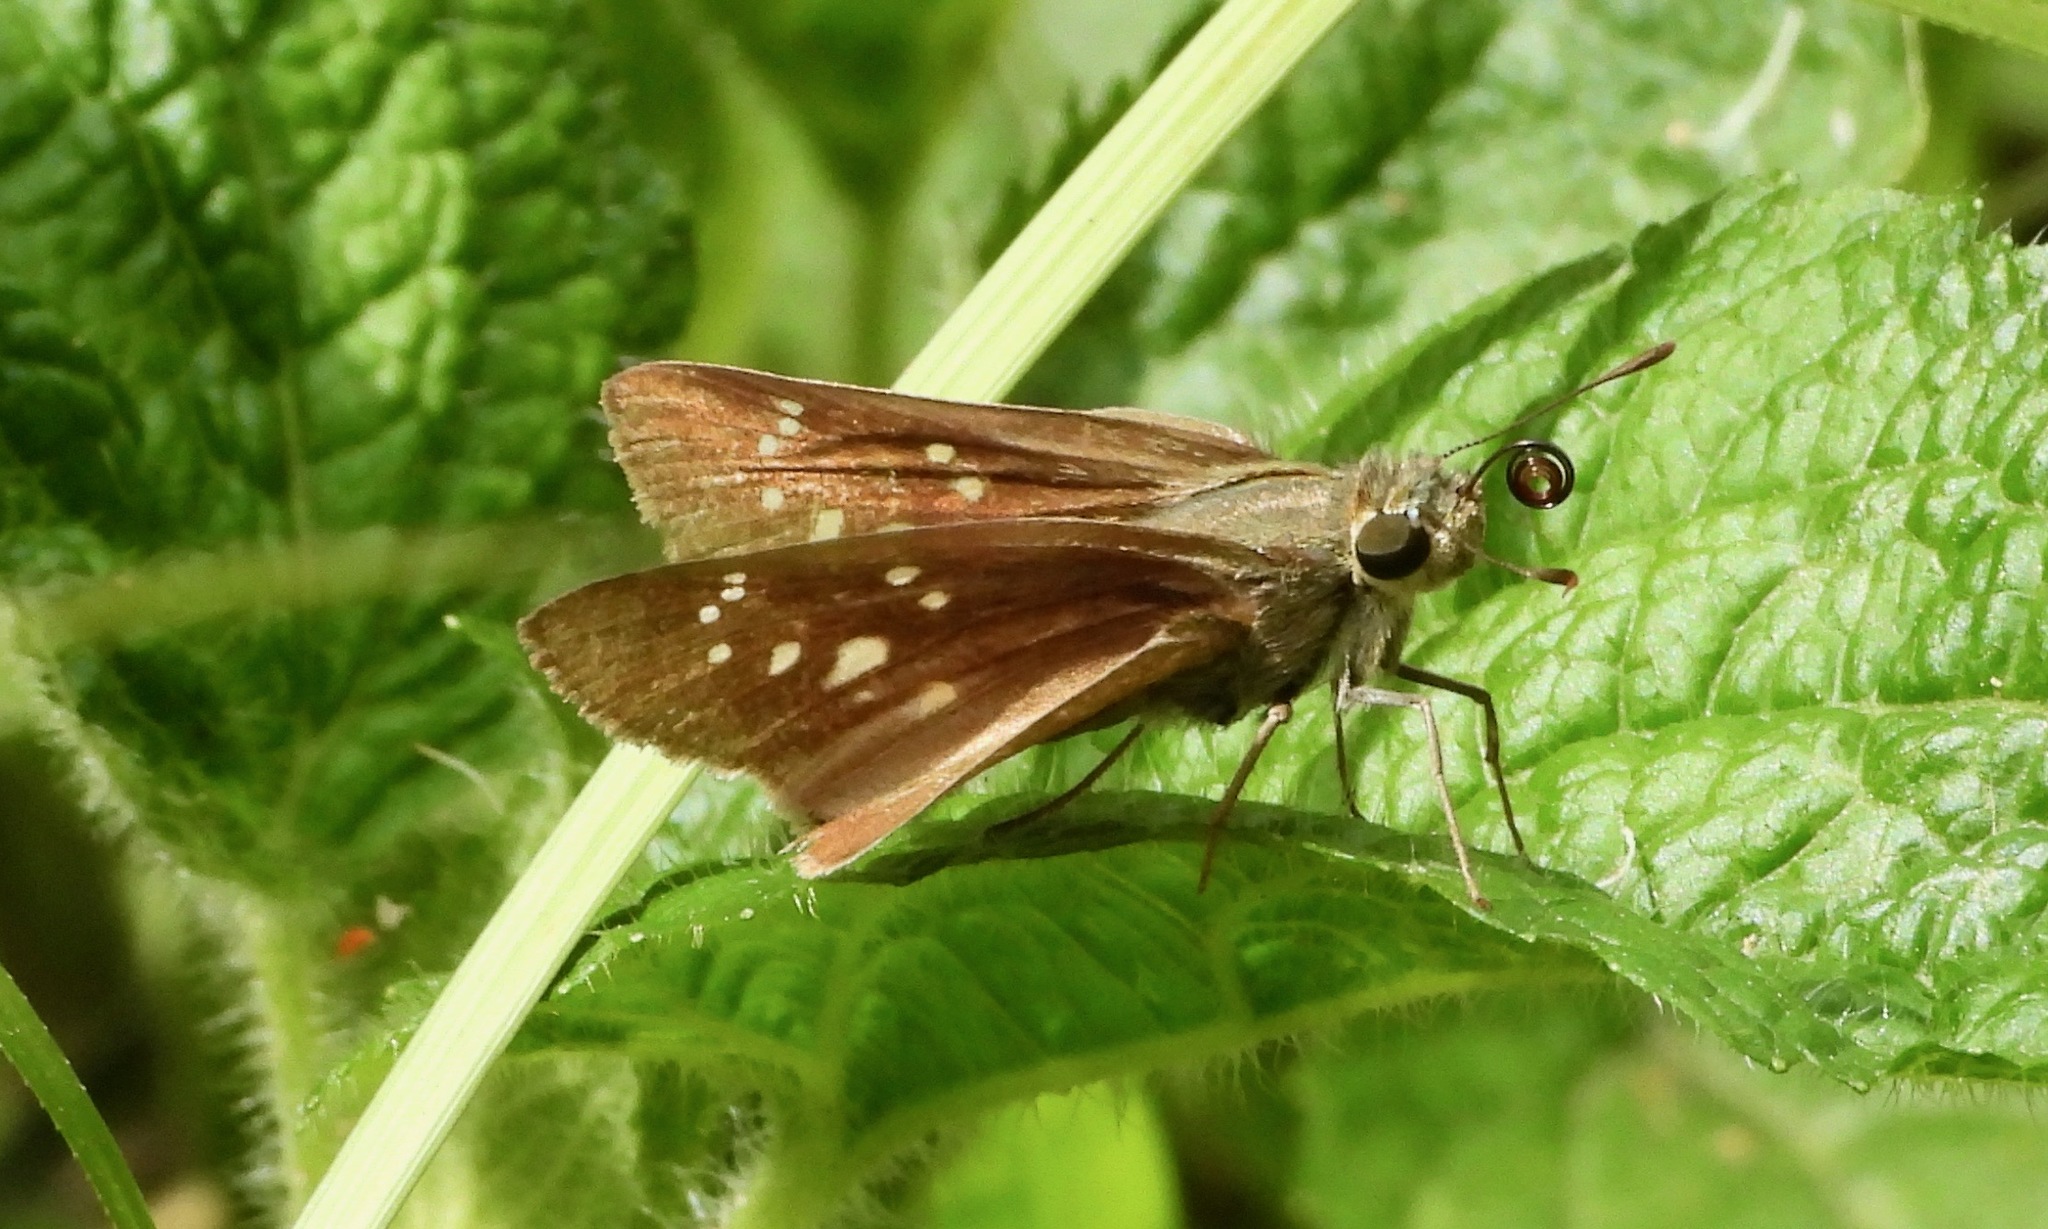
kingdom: Animalia
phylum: Arthropoda
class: Insecta
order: Lepidoptera
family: Hesperiidae
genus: Pelopidas
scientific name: Pelopidas mathias
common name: Black-branded swift
